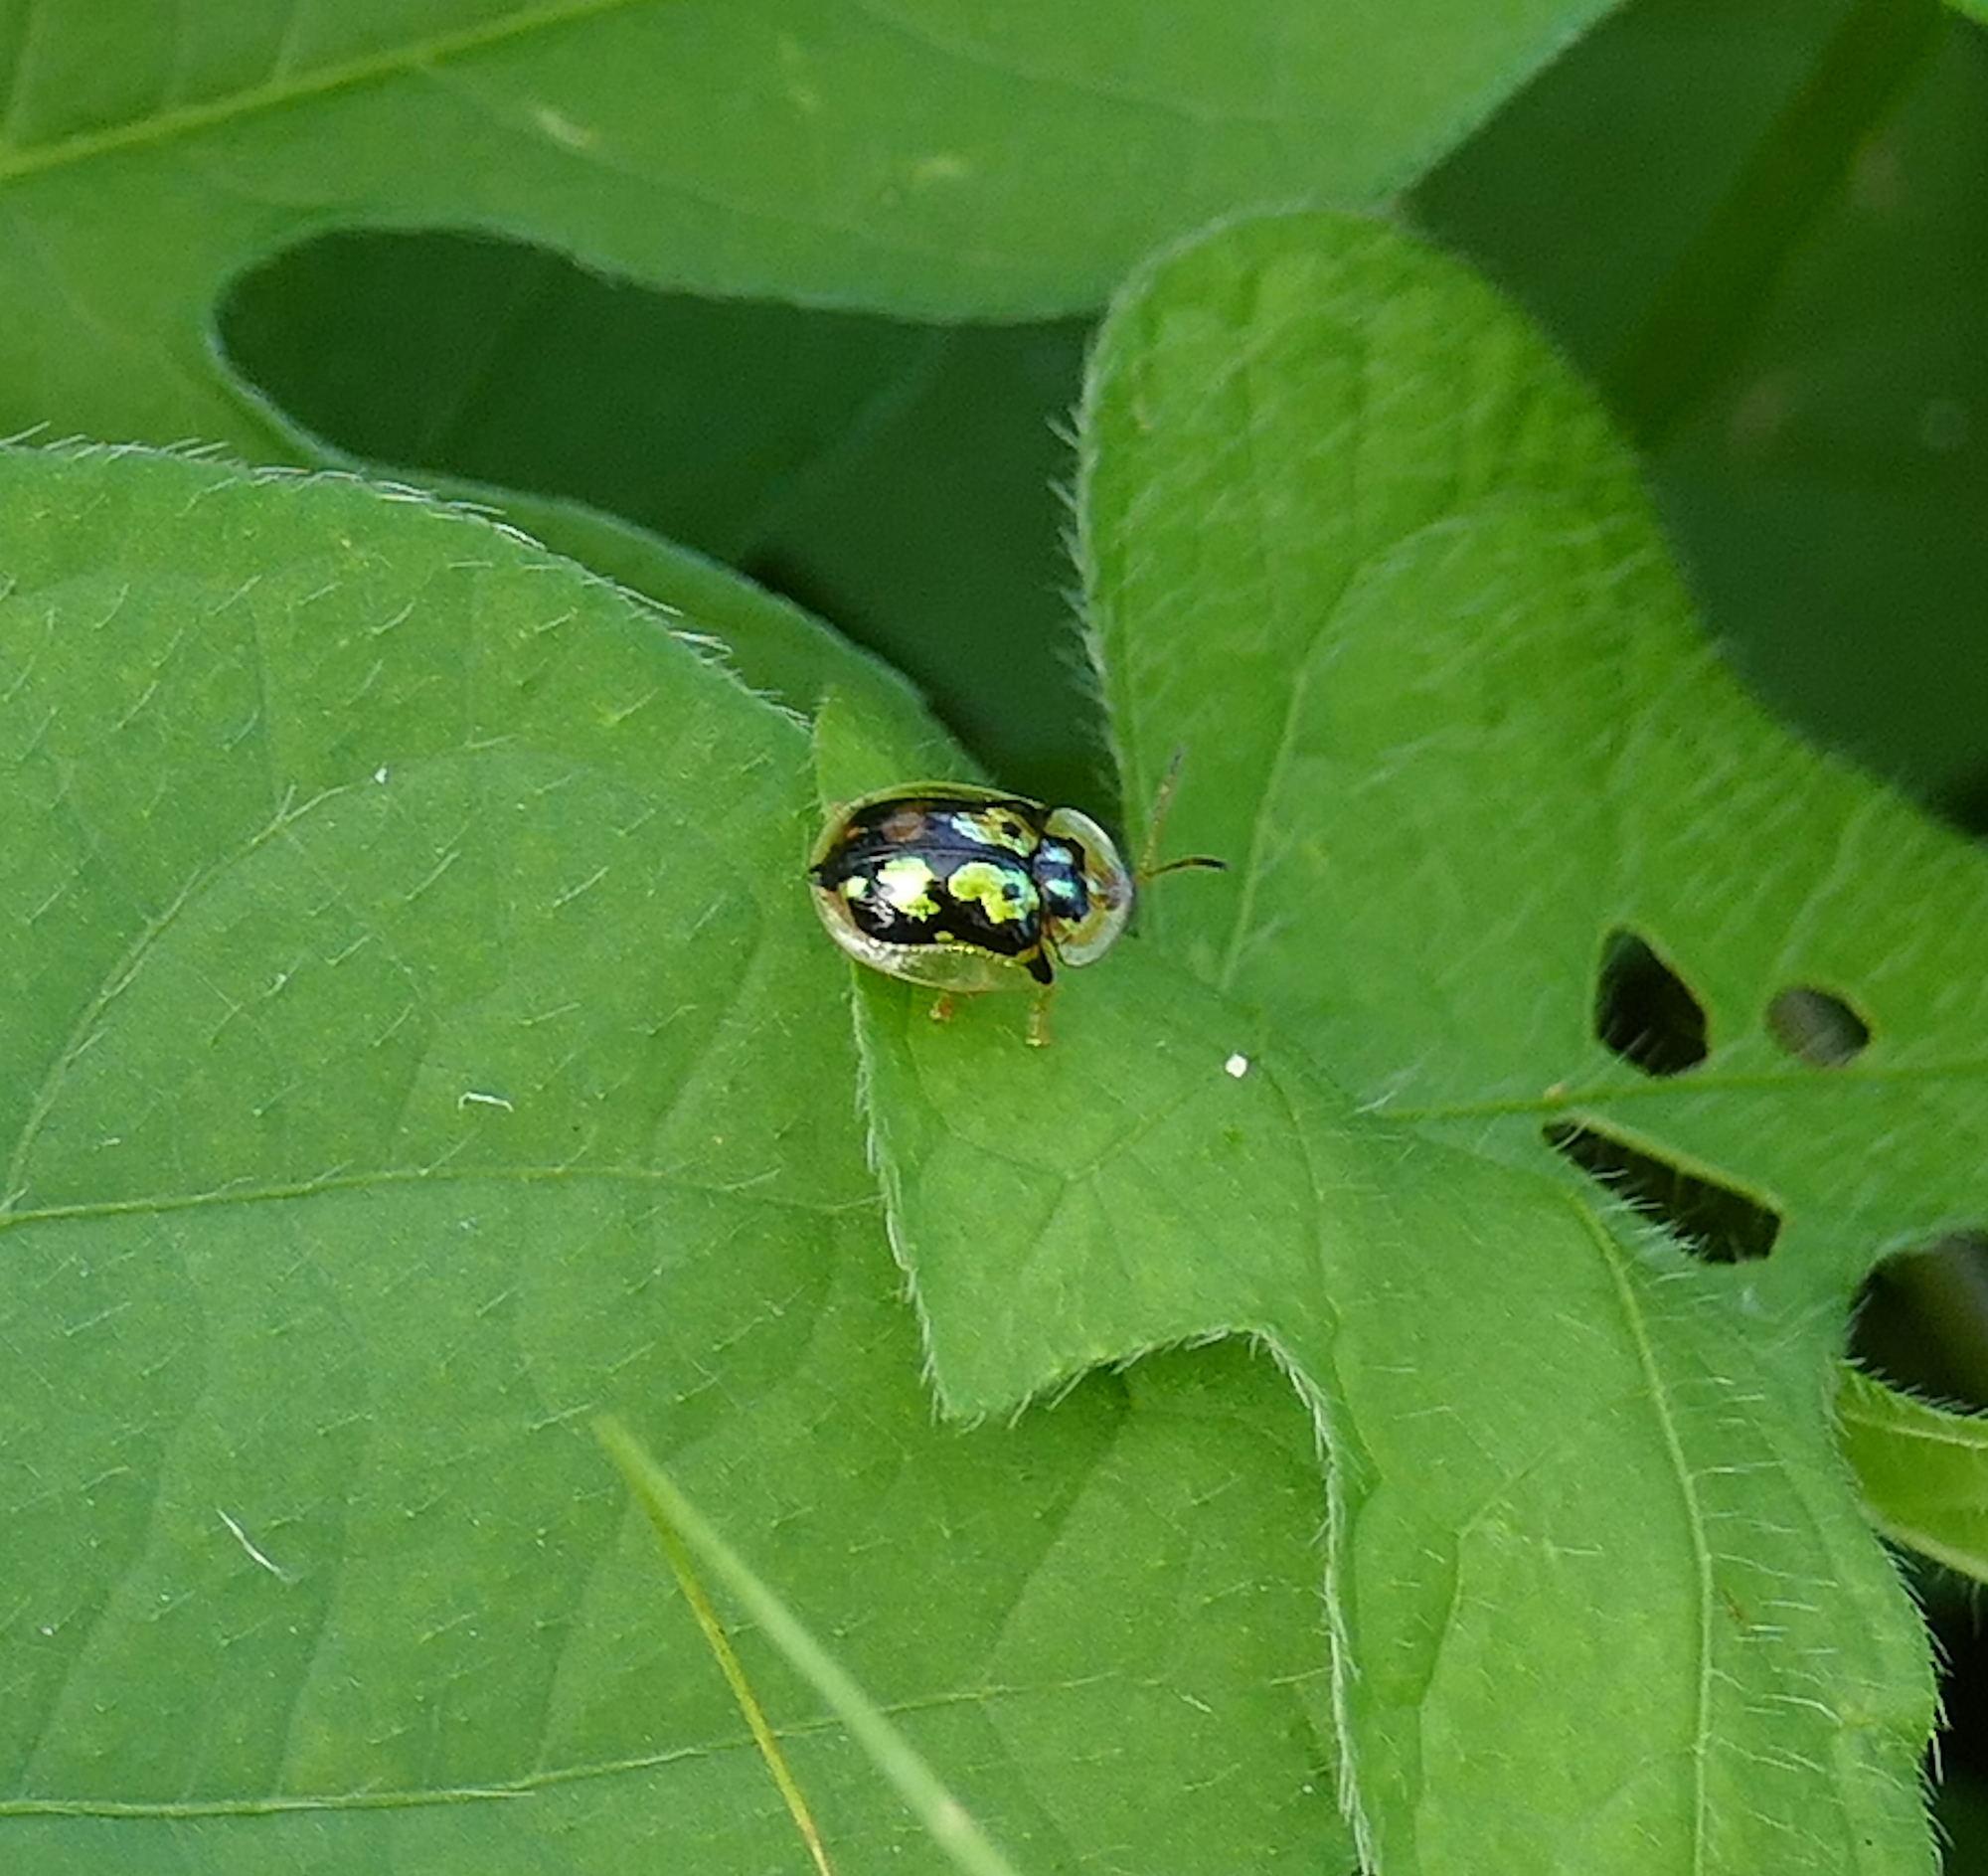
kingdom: Animalia
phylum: Arthropoda
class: Insecta
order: Coleoptera
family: Chrysomelidae
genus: Deloyala
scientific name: Deloyala lecontei
